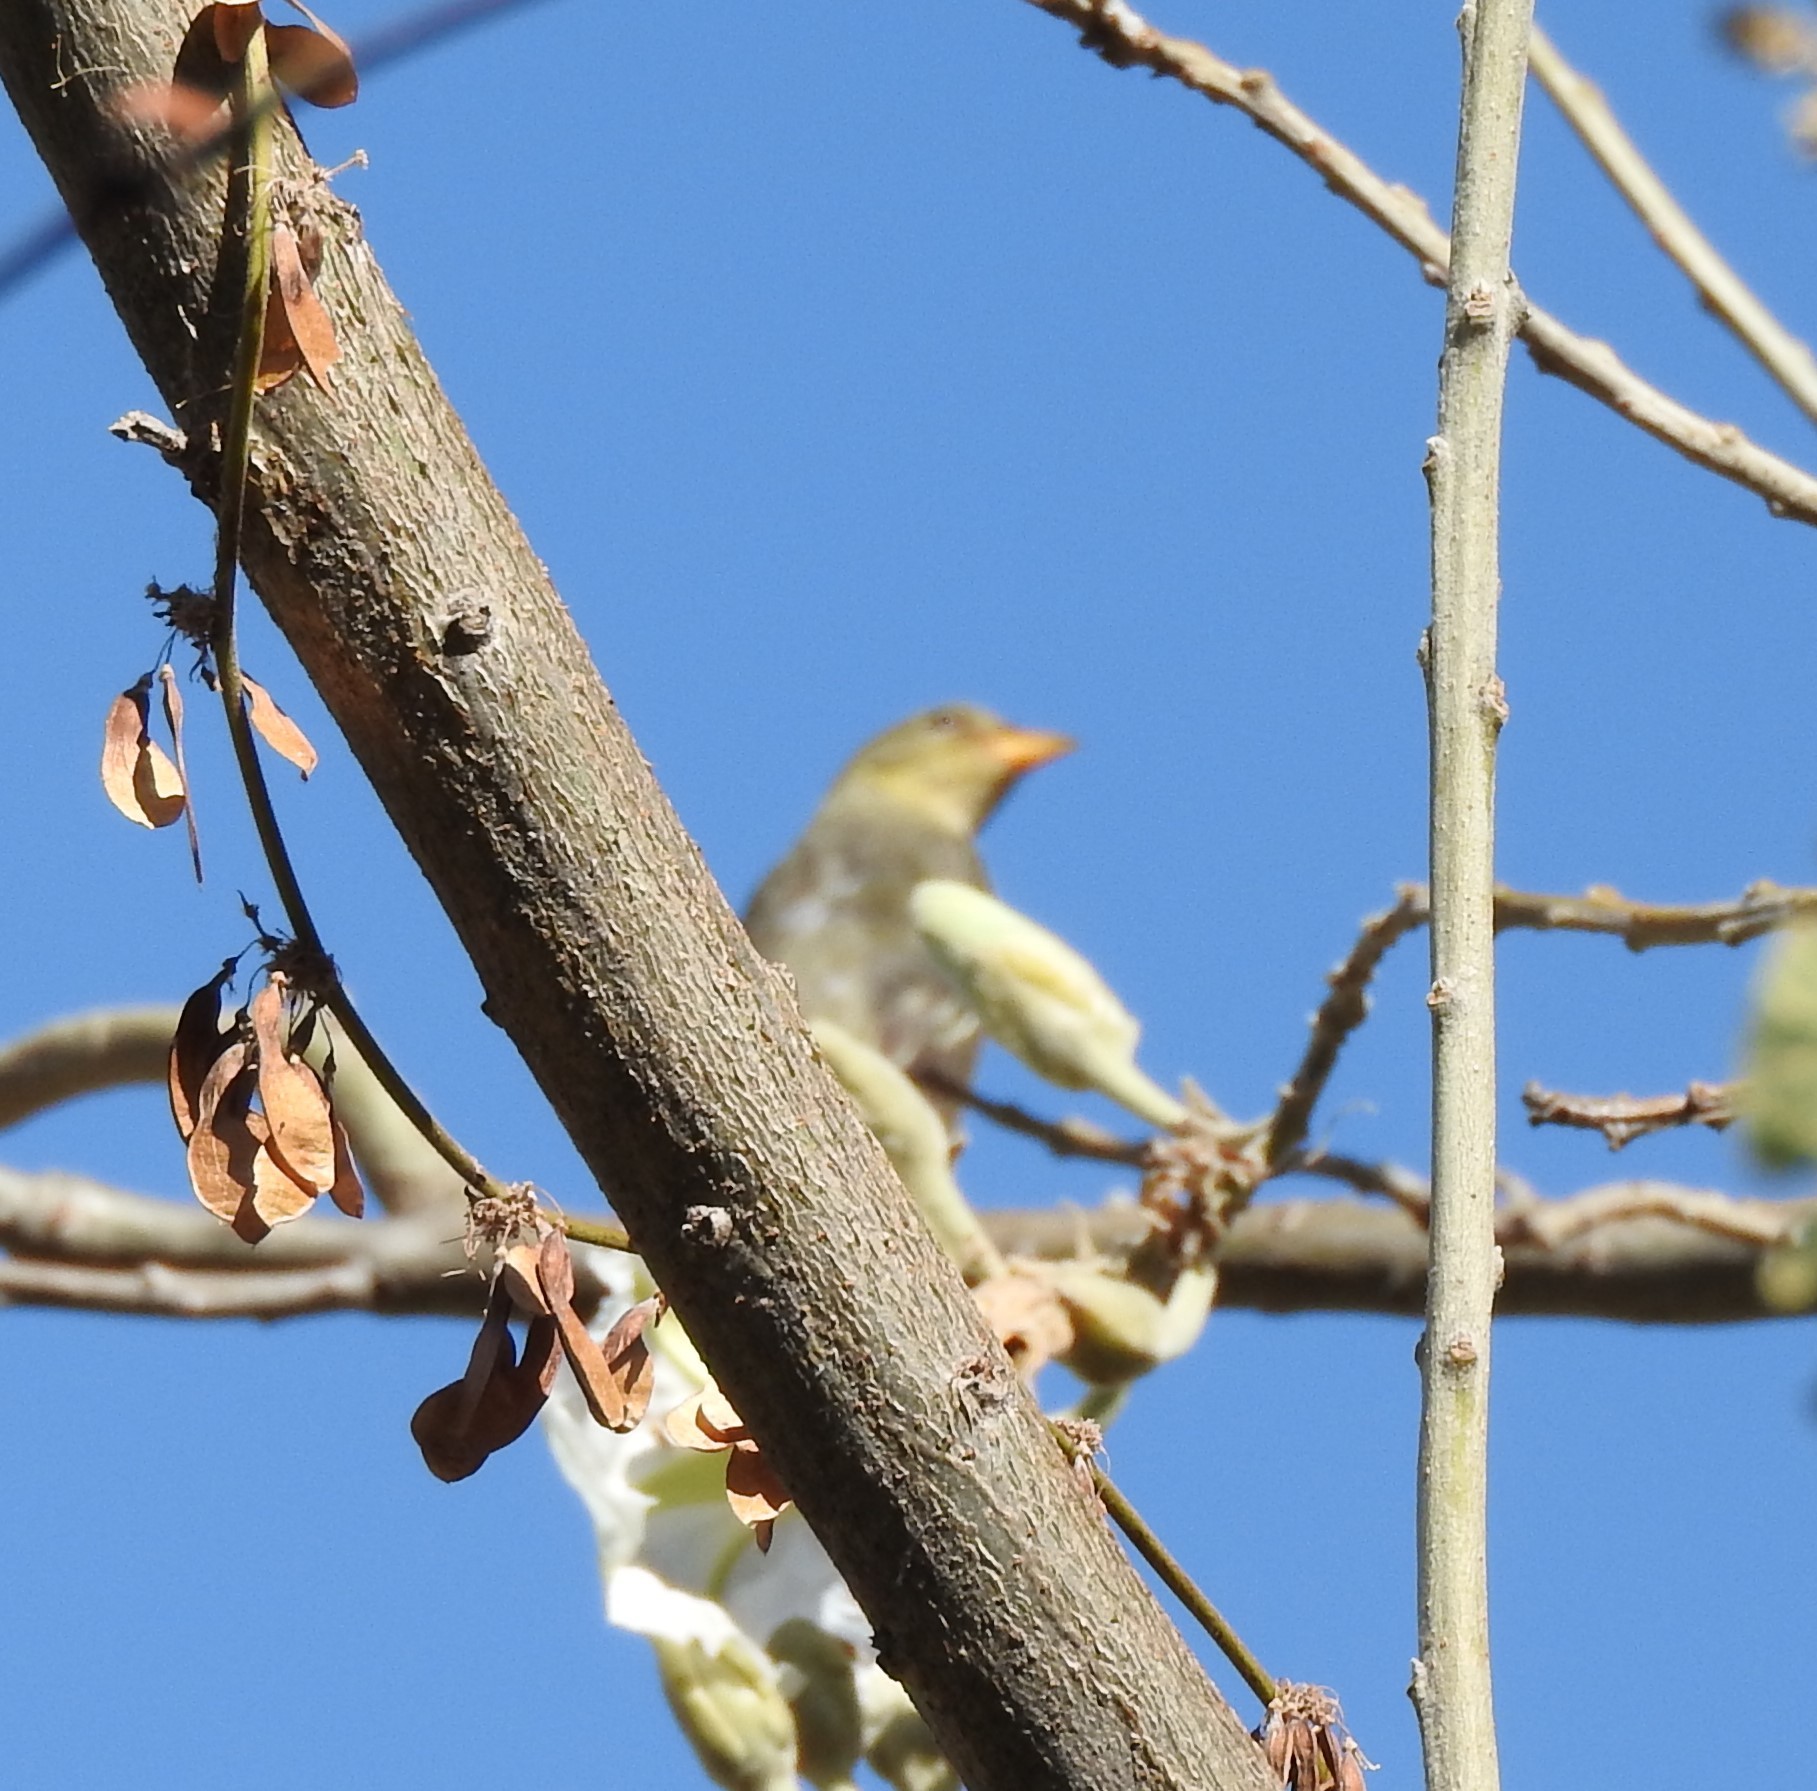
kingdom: Animalia
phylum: Chordata
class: Aves
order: Passeriformes
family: Cardinalidae
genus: Piranga
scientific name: Piranga ludoviciana
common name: Western tanager
